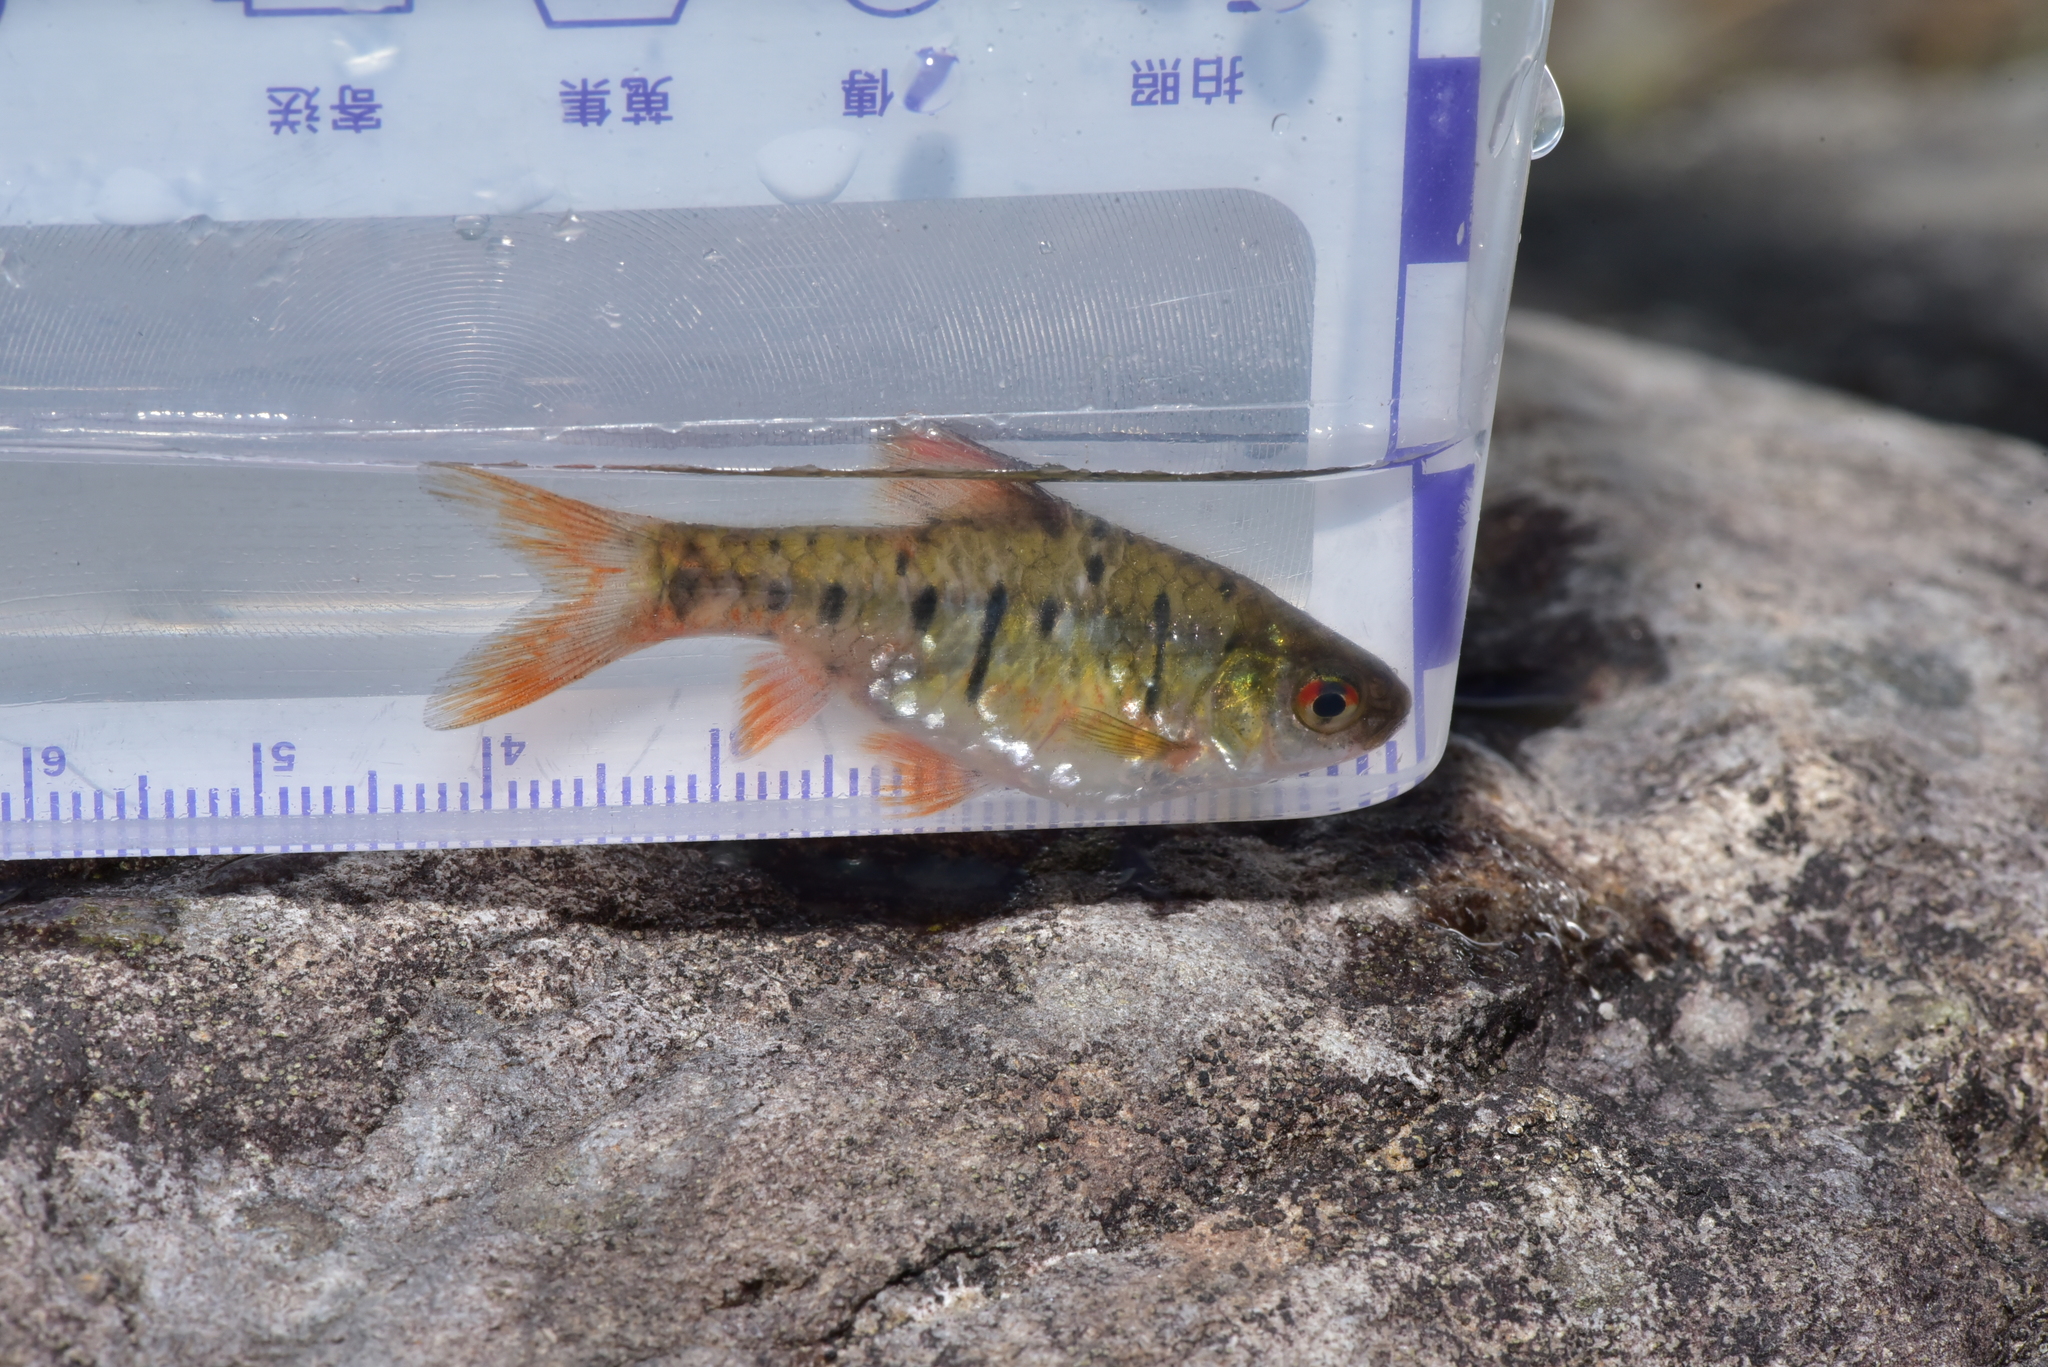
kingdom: Animalia
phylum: Chordata
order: Cypriniformes
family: Cyprinidae
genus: Barbodes
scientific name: Barbodes semifasciolatus
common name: Gold barb
